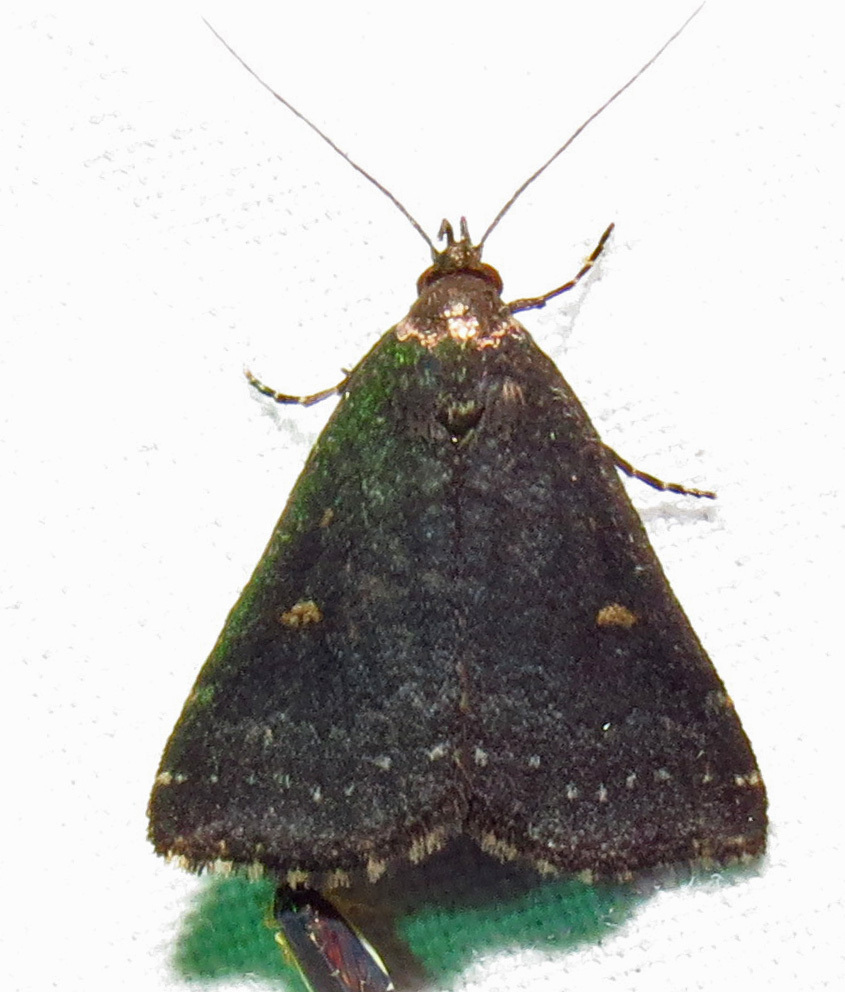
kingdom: Animalia
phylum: Arthropoda
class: Insecta
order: Lepidoptera
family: Erebidae
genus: Tetanolita
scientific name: Tetanolita mynesalis
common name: Smoky tetanolita moth
